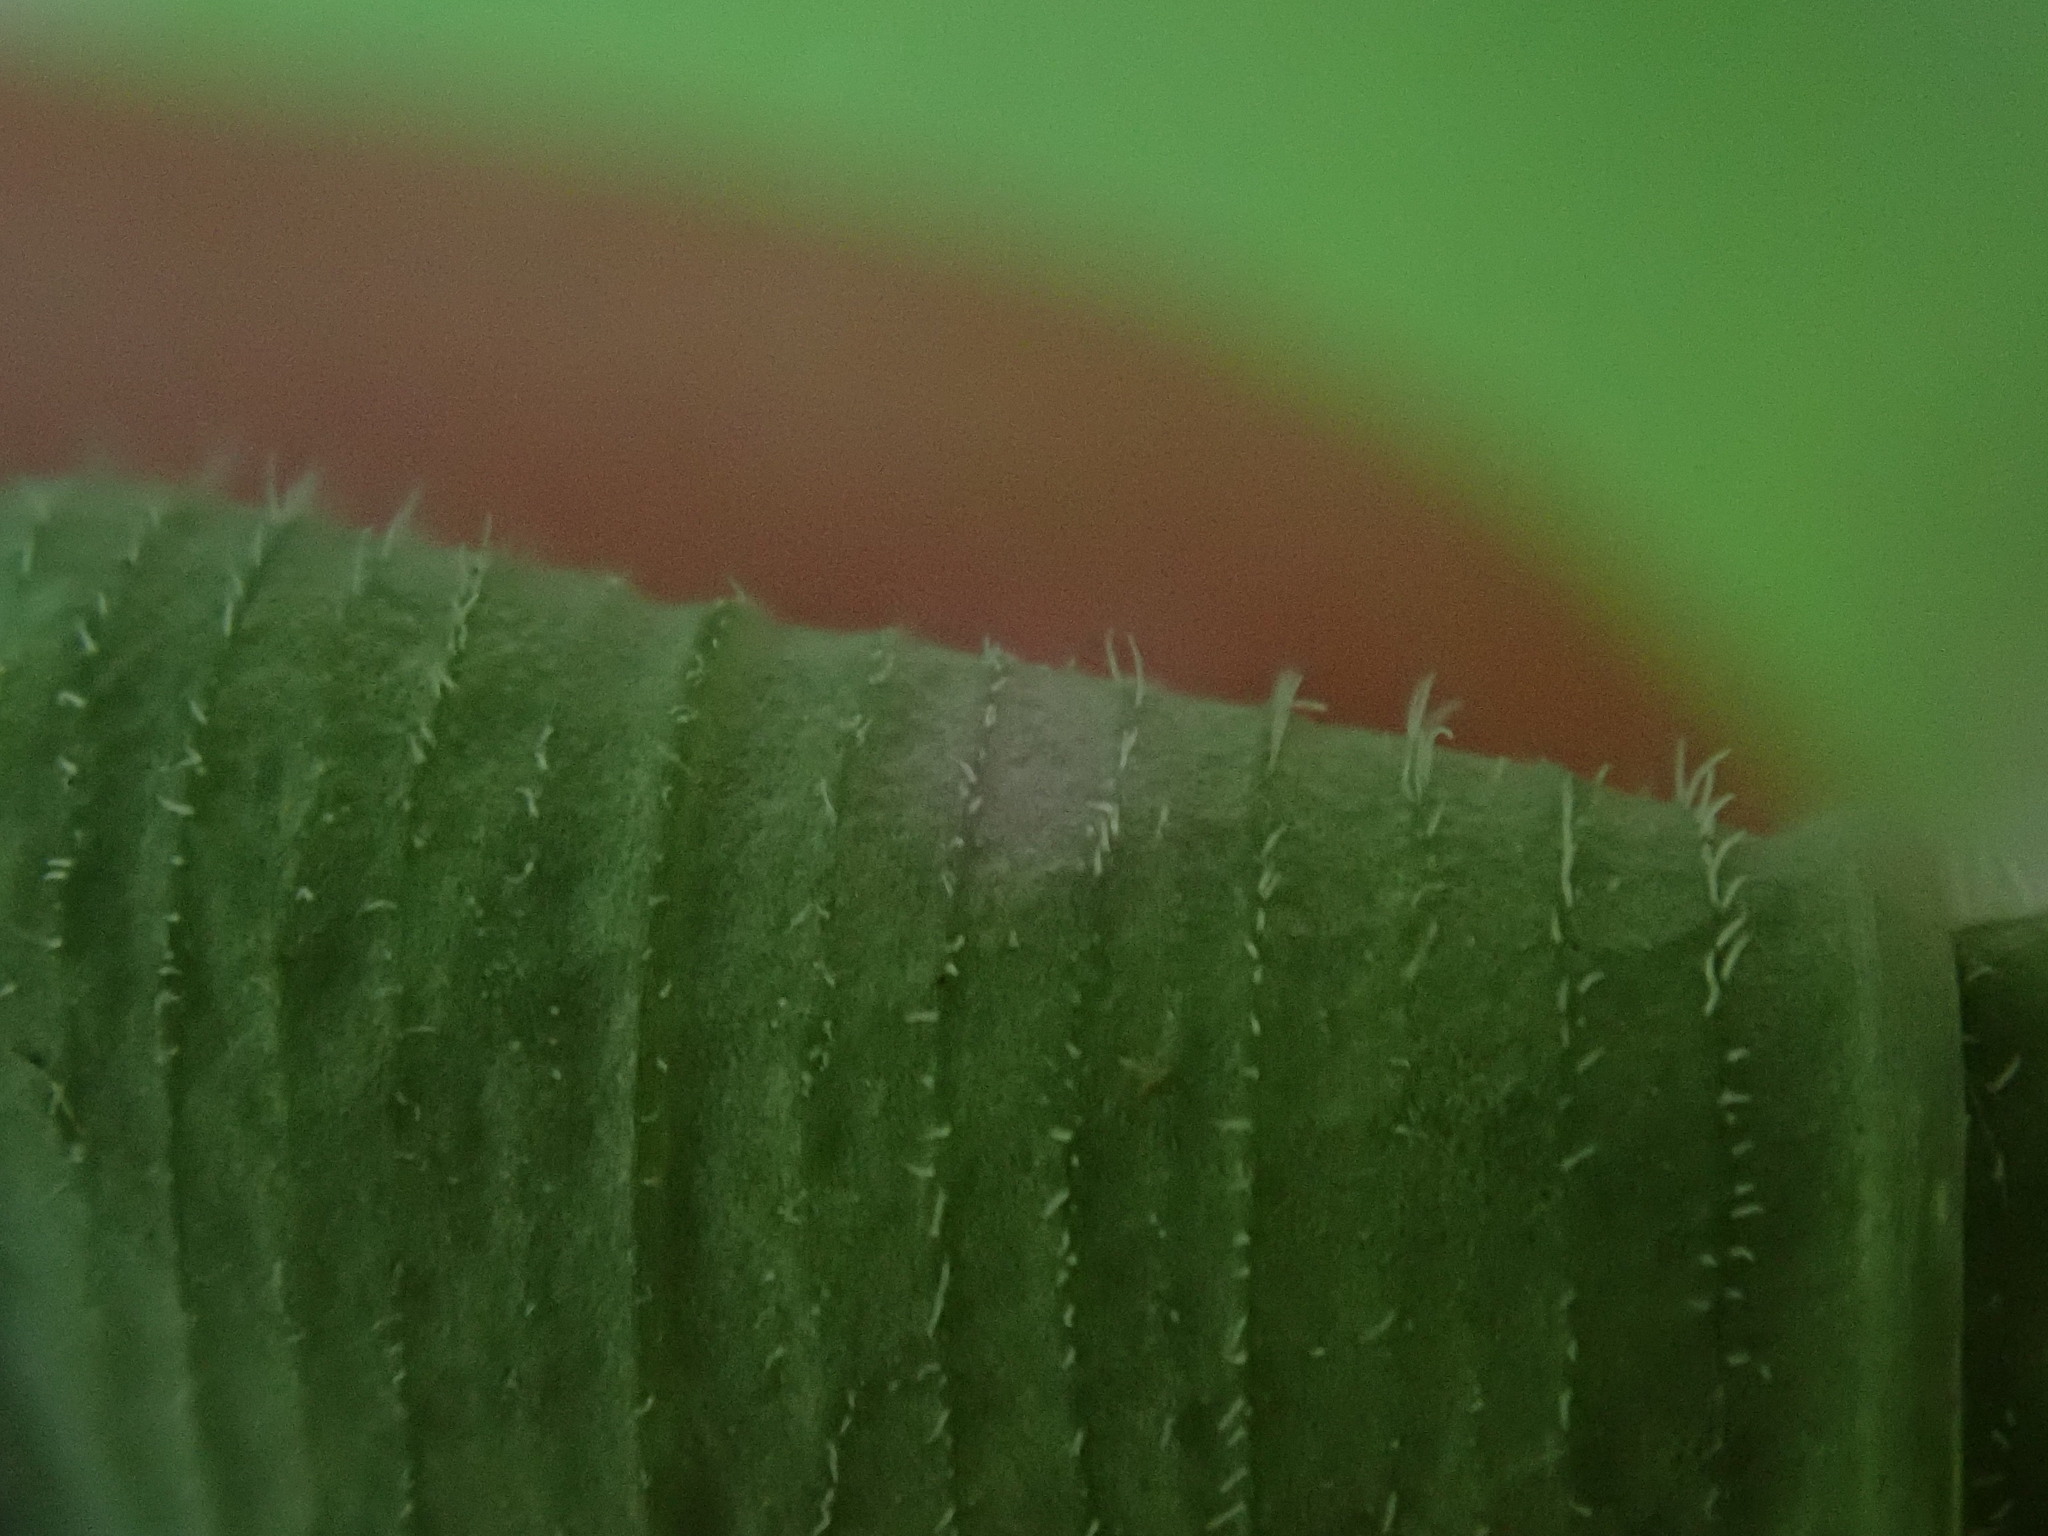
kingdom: Plantae
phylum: Tracheophyta
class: Liliopsida
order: Asparagales
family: Asparagaceae
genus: Polygonatum
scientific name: Polygonatum pubescens
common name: Downy solomon's seal
